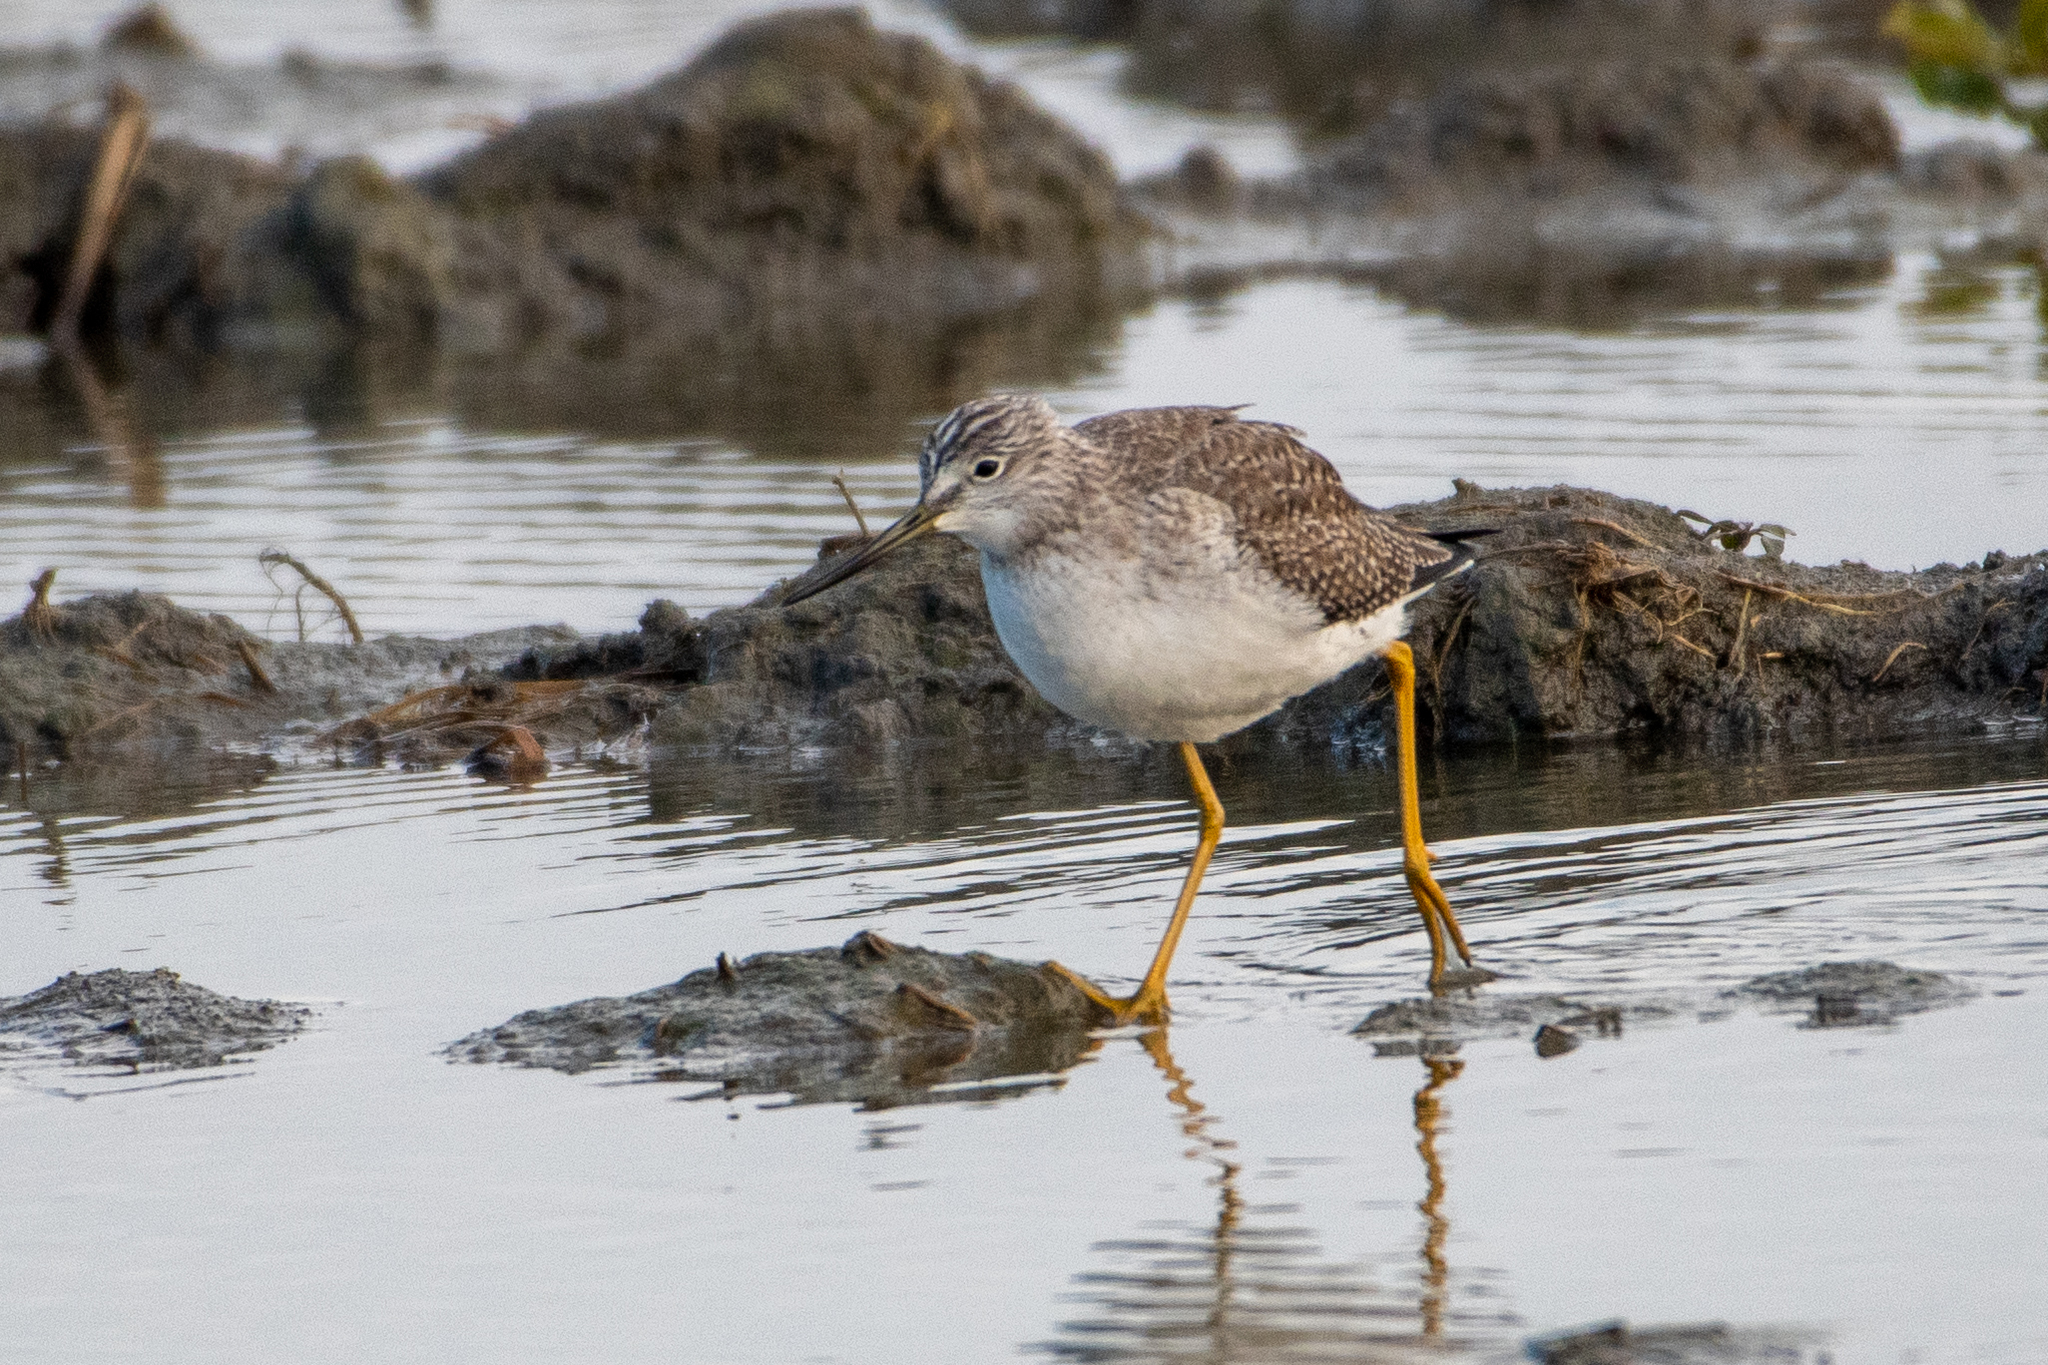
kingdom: Animalia
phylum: Chordata
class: Aves
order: Charadriiformes
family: Scolopacidae
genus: Tringa
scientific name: Tringa melanoleuca
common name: Greater yellowlegs
